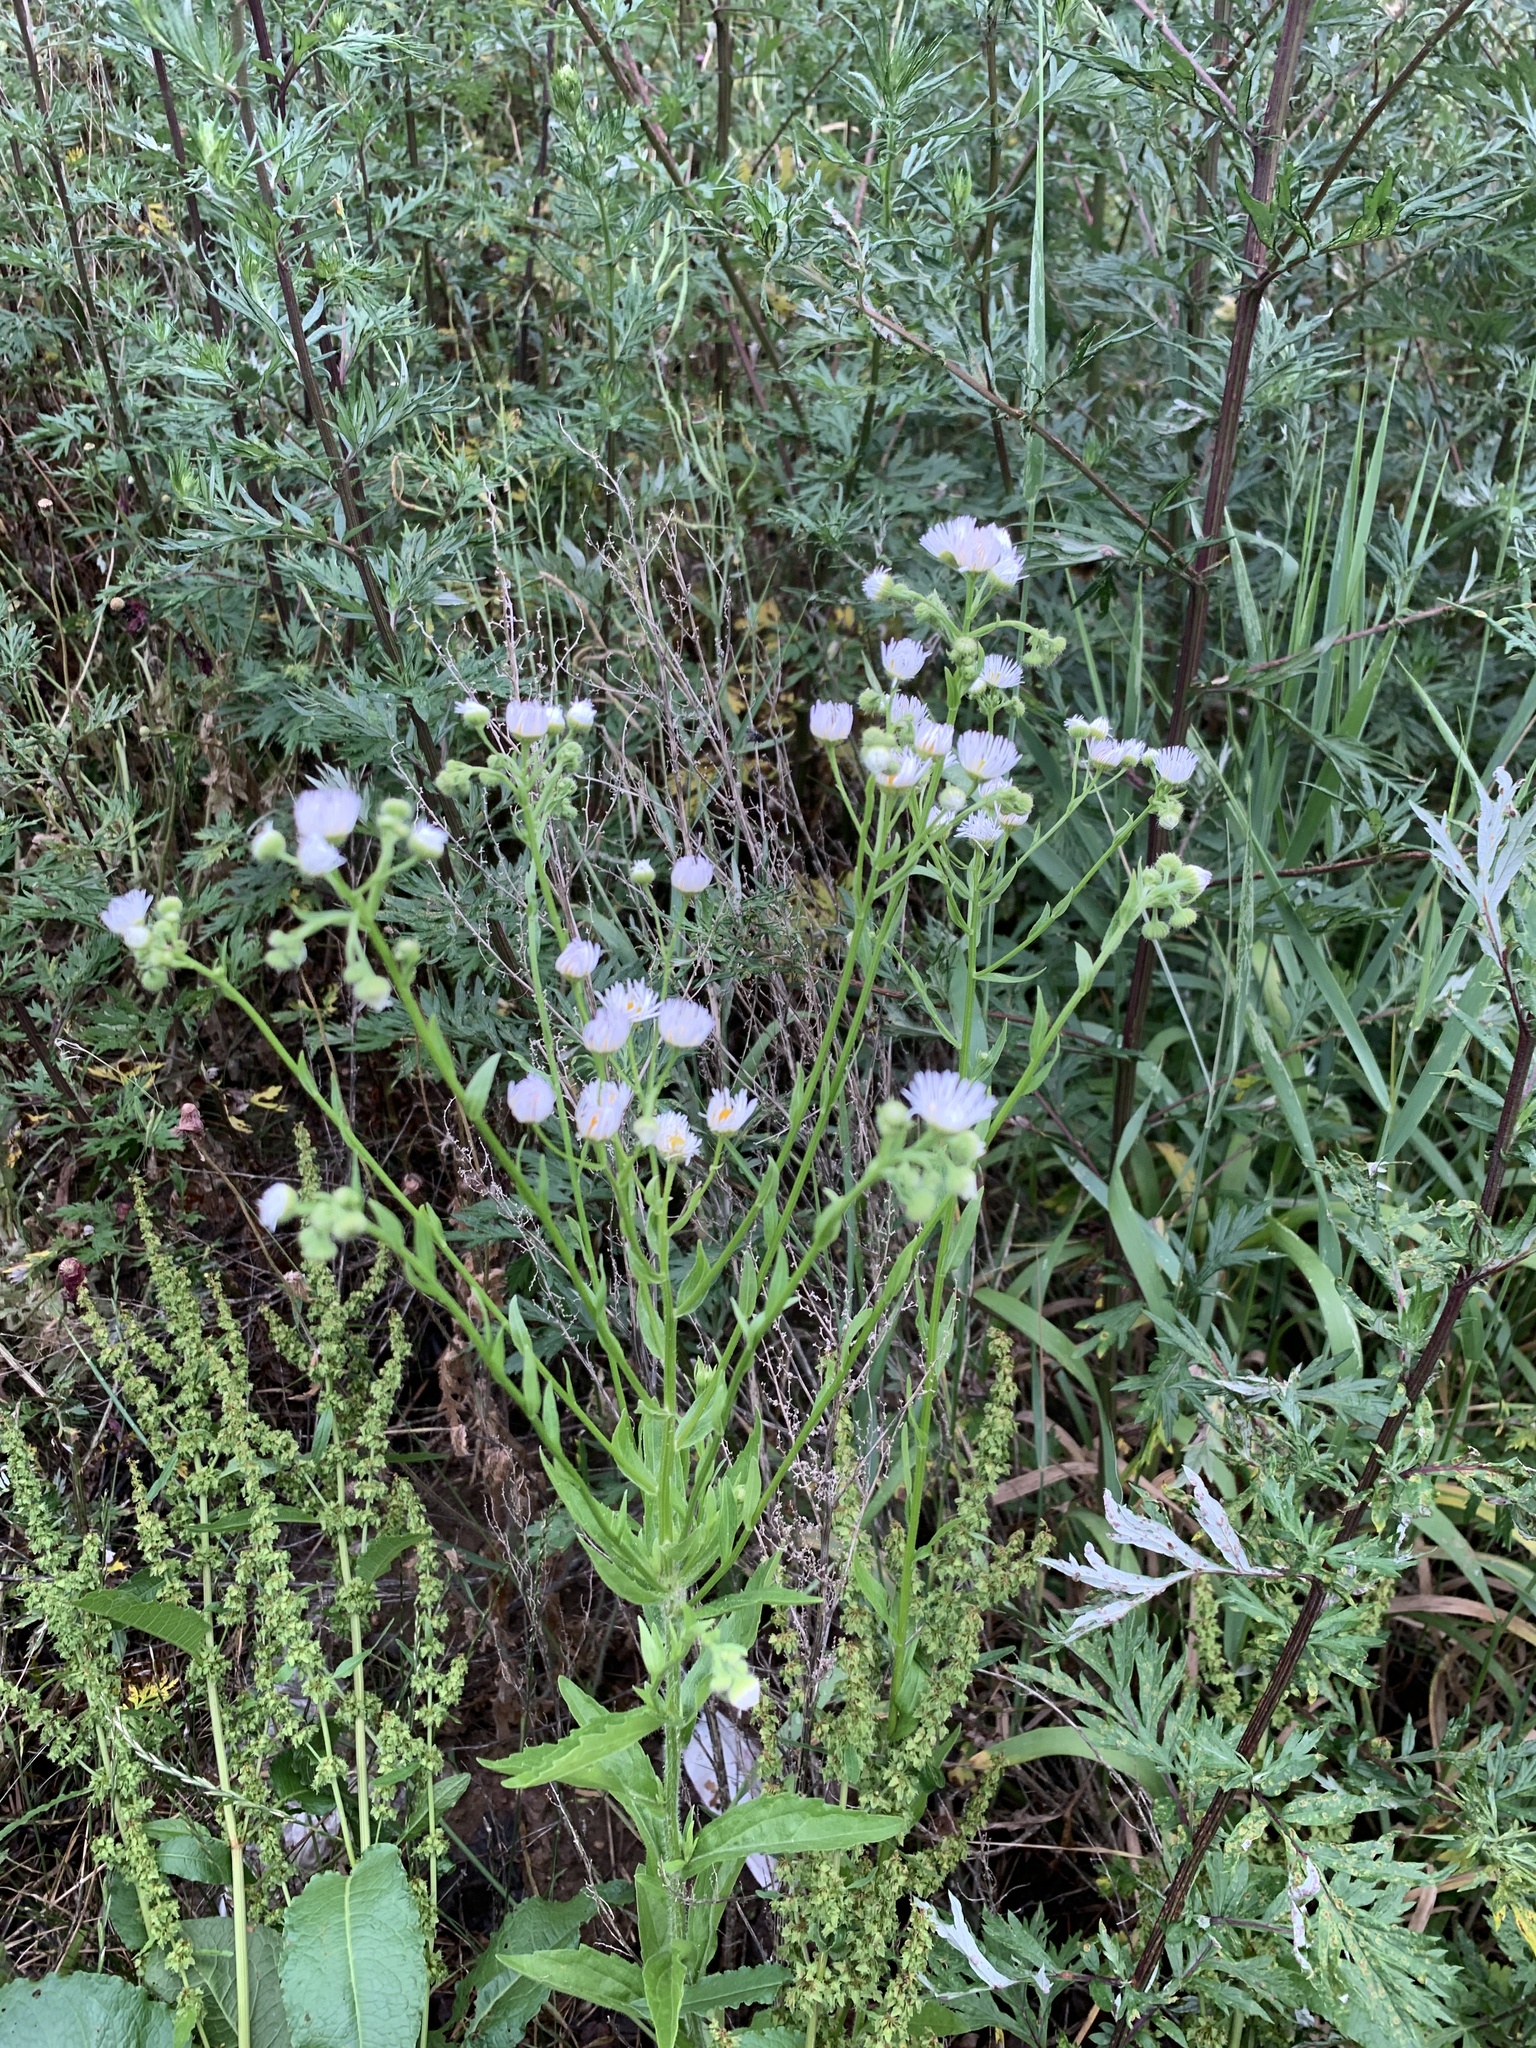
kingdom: Plantae
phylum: Tracheophyta
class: Magnoliopsida
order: Asterales
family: Asteraceae
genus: Erigeron
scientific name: Erigeron annuus
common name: Tall fleabane
